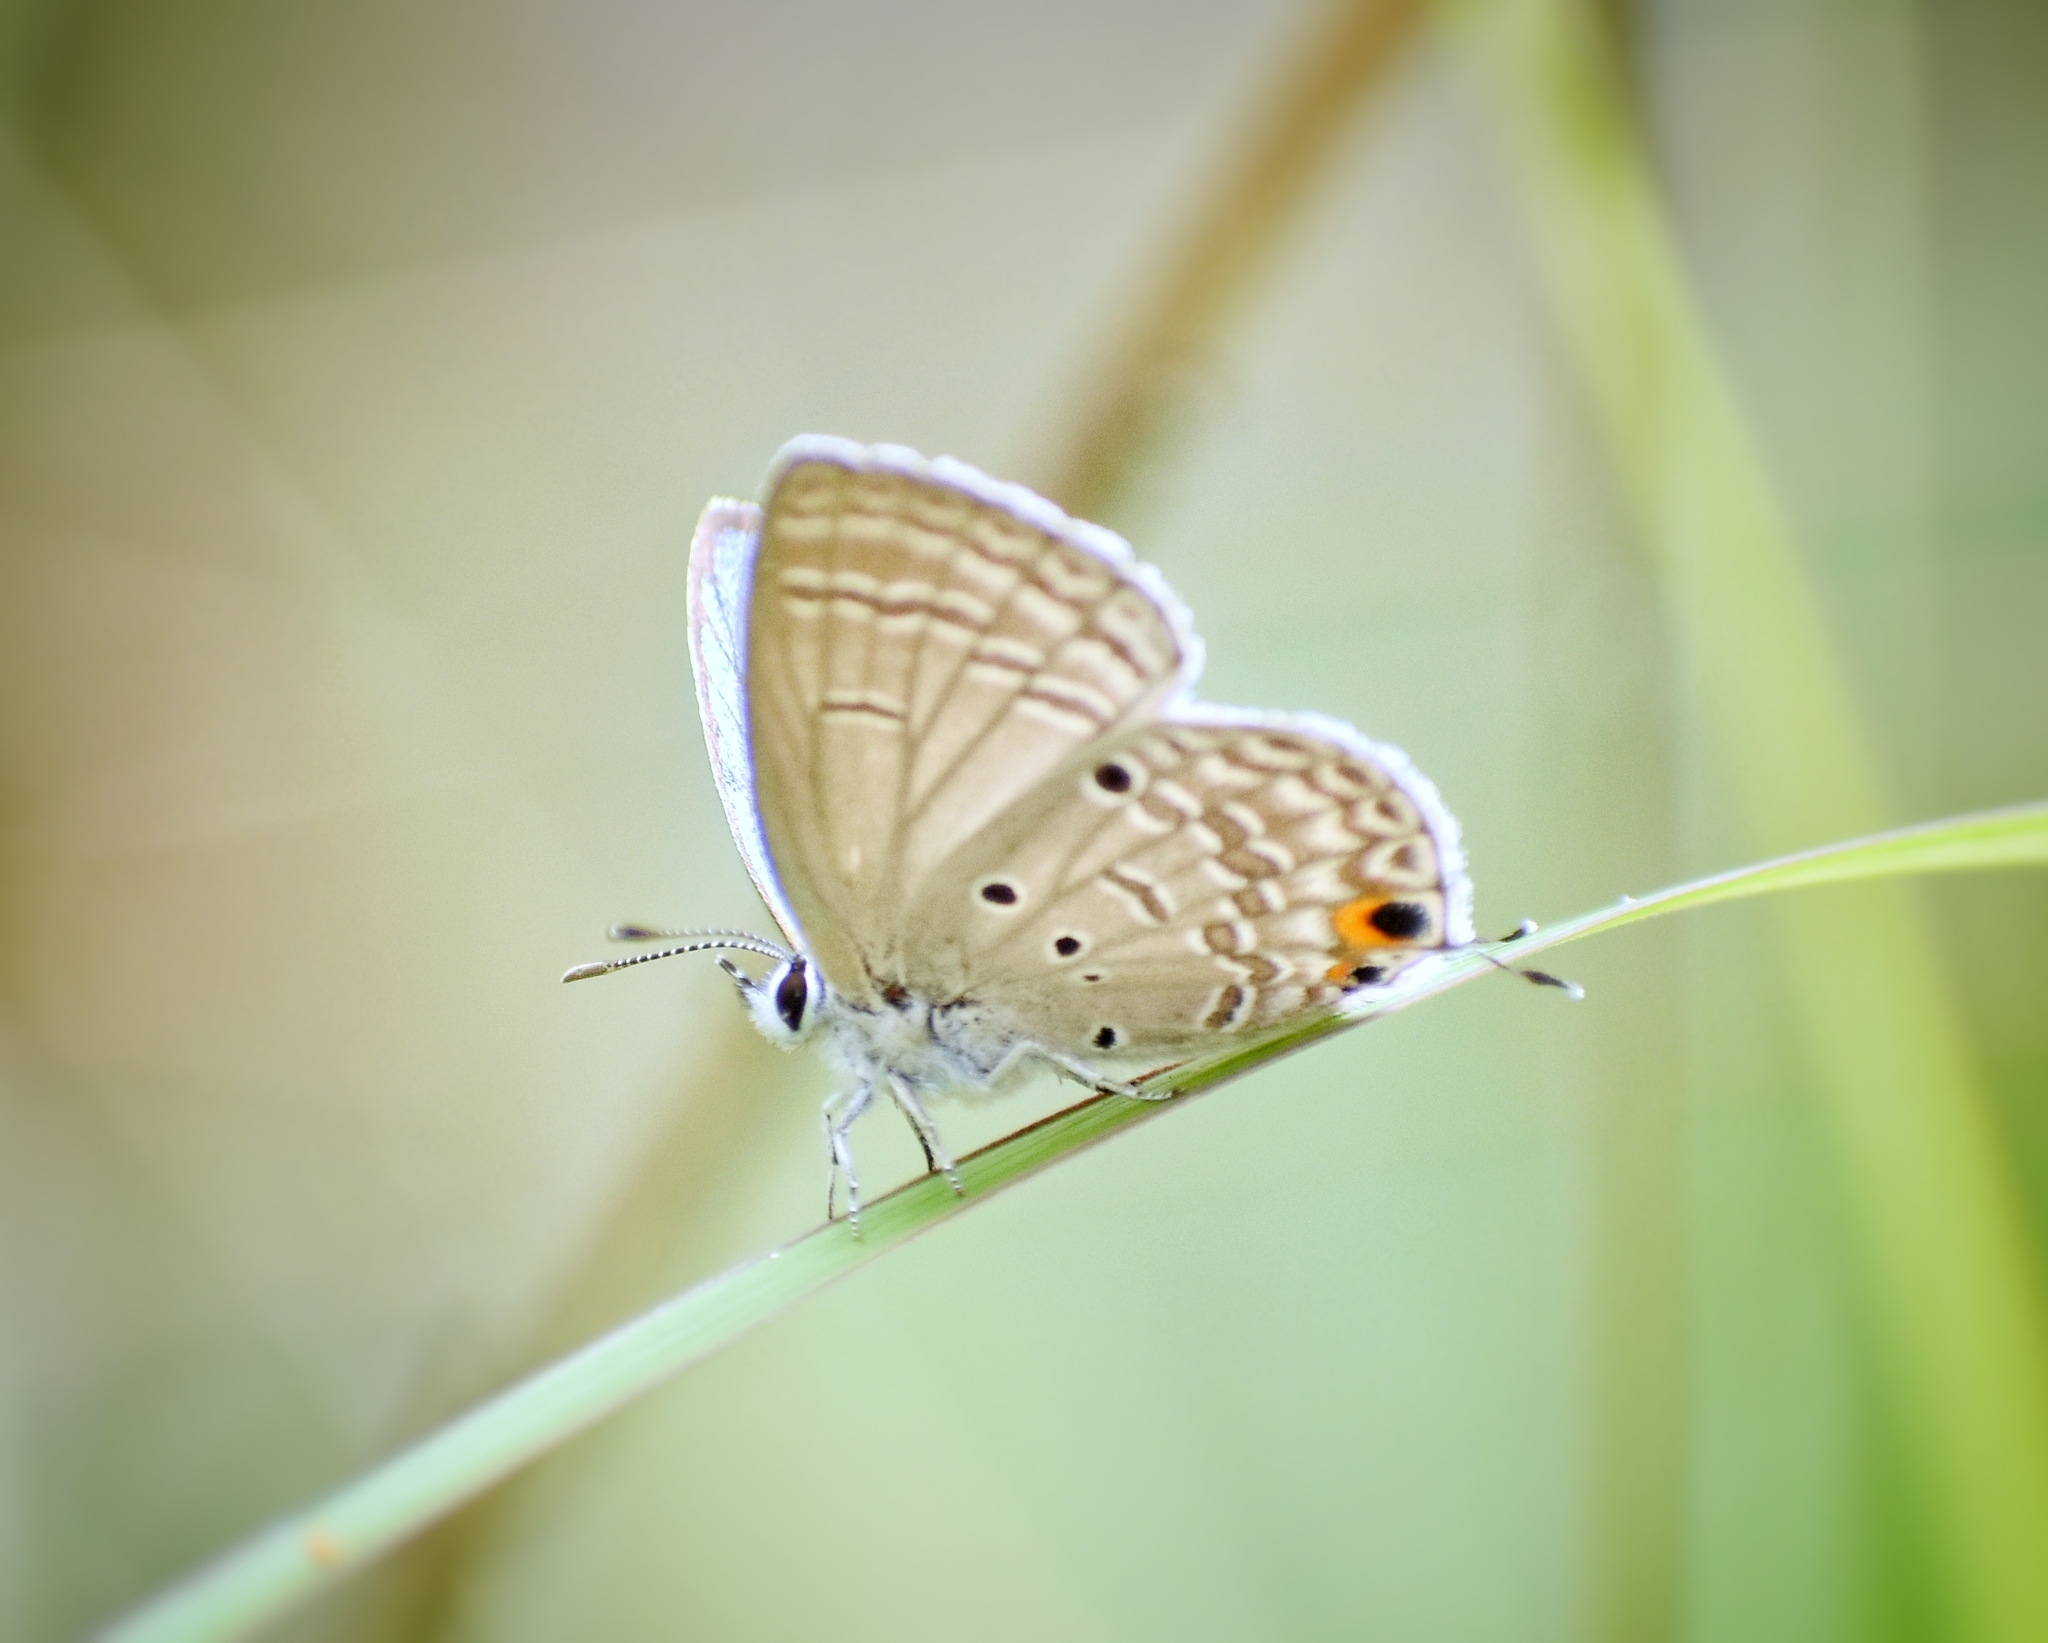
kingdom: Animalia
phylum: Arthropoda
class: Insecta
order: Lepidoptera
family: Lycaenidae
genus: Luthrodes
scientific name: Luthrodes pandava
